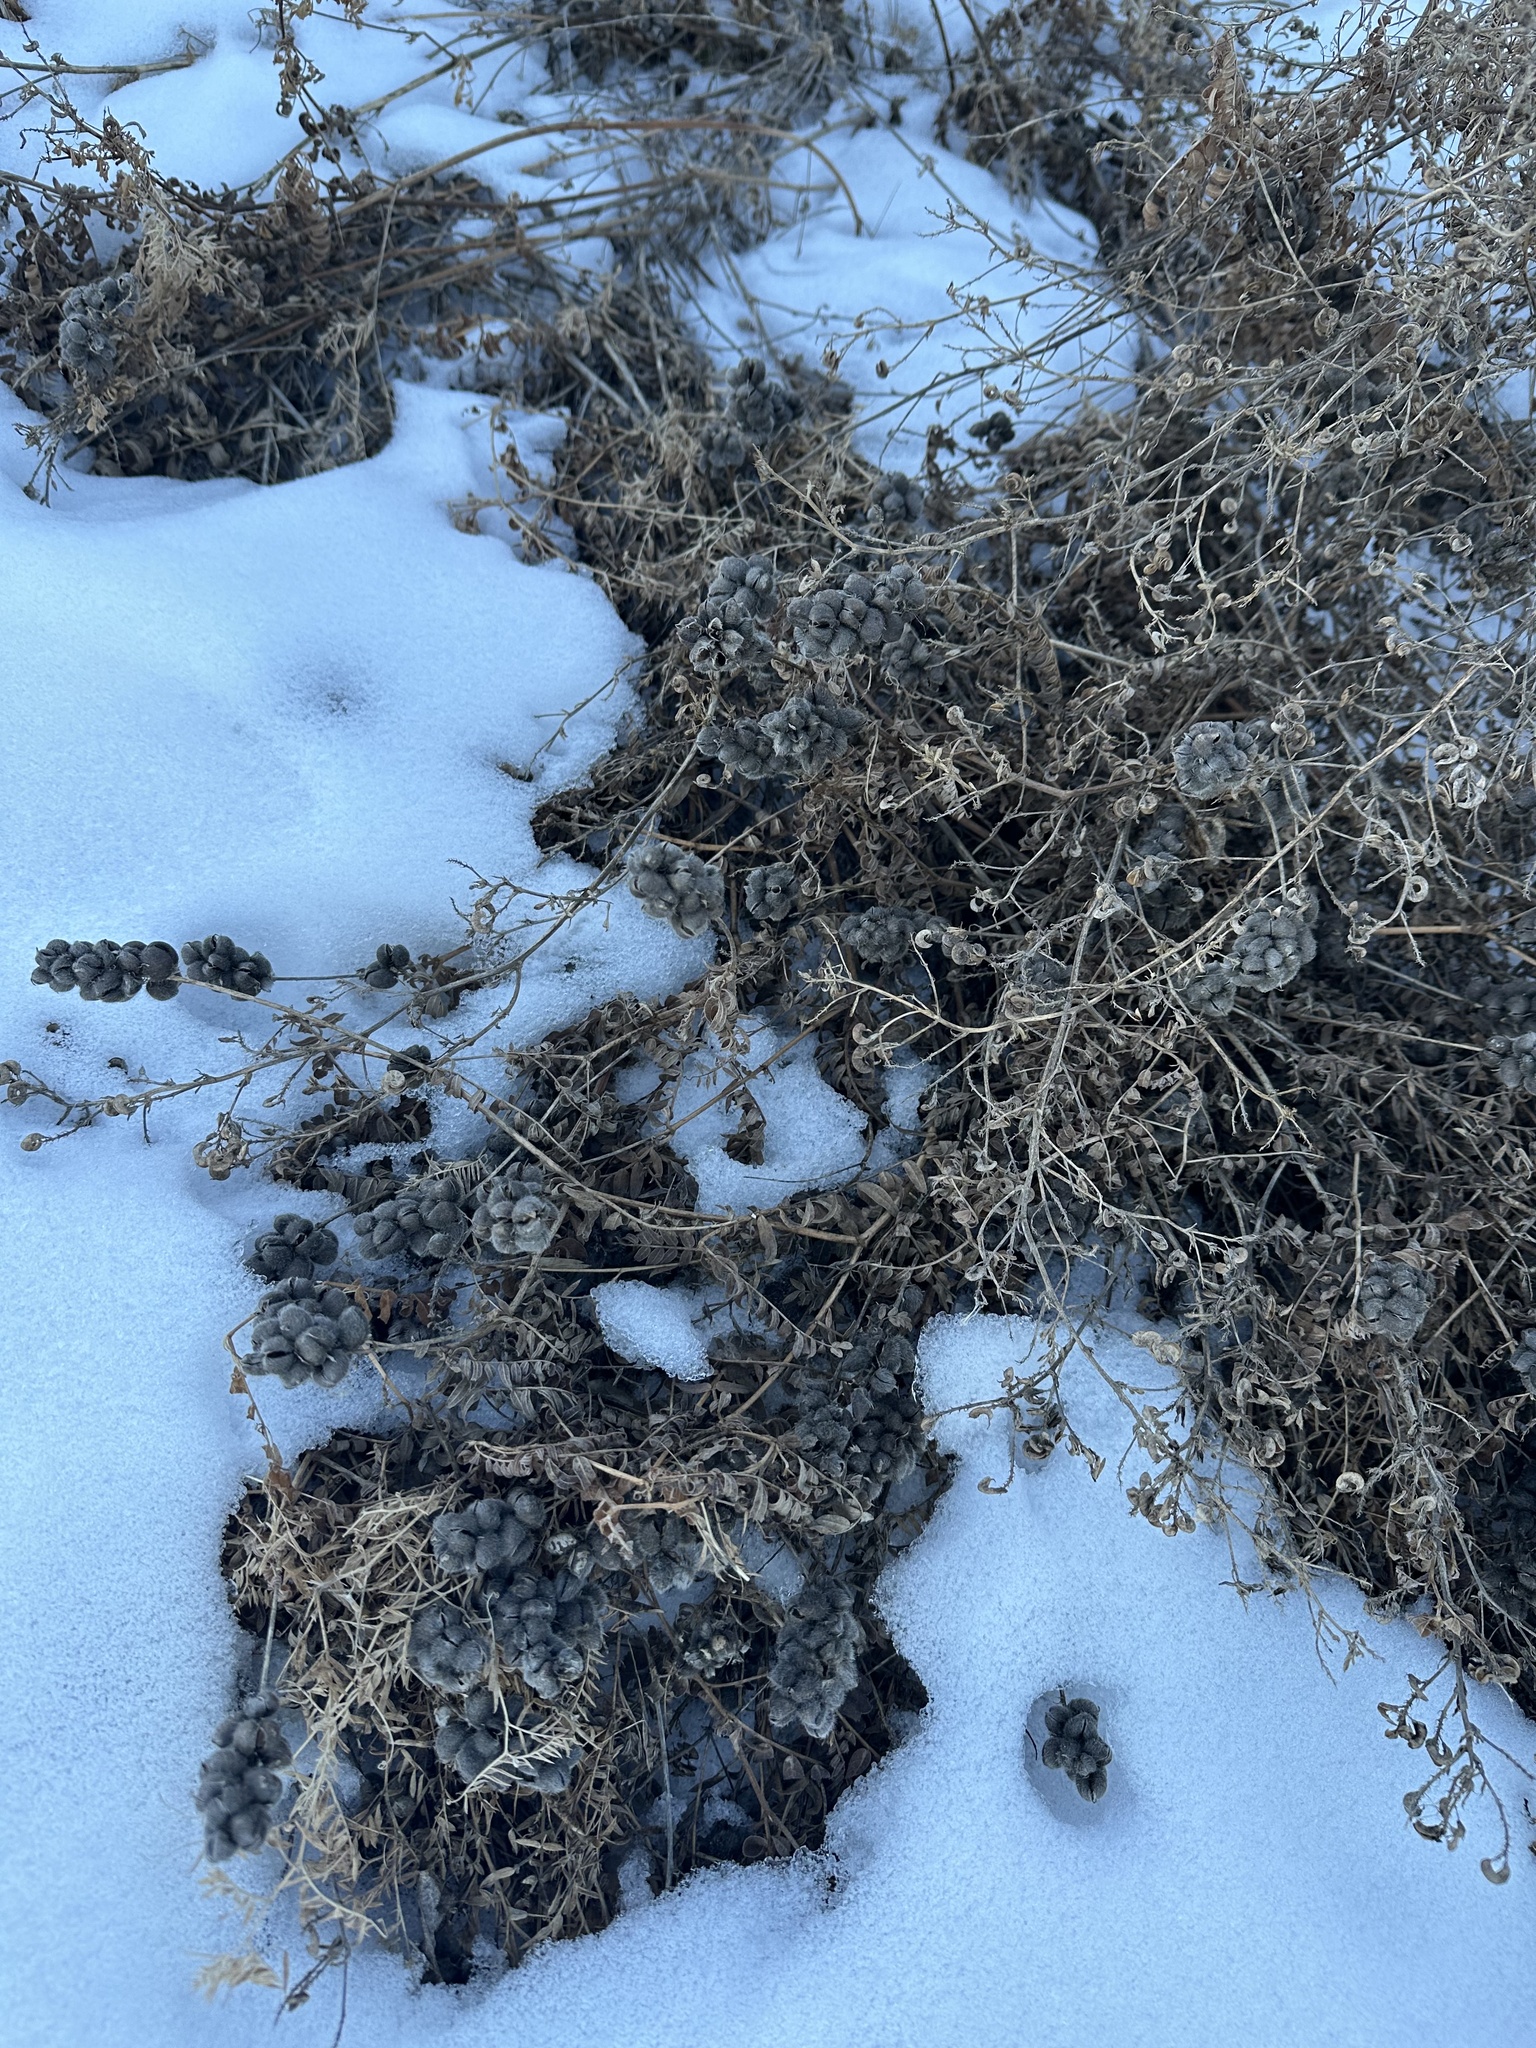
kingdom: Plantae
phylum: Tracheophyta
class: Magnoliopsida
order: Fabales
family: Fabaceae
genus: Astragalus
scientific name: Astragalus cicer
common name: Chick-pea milk-vetch
